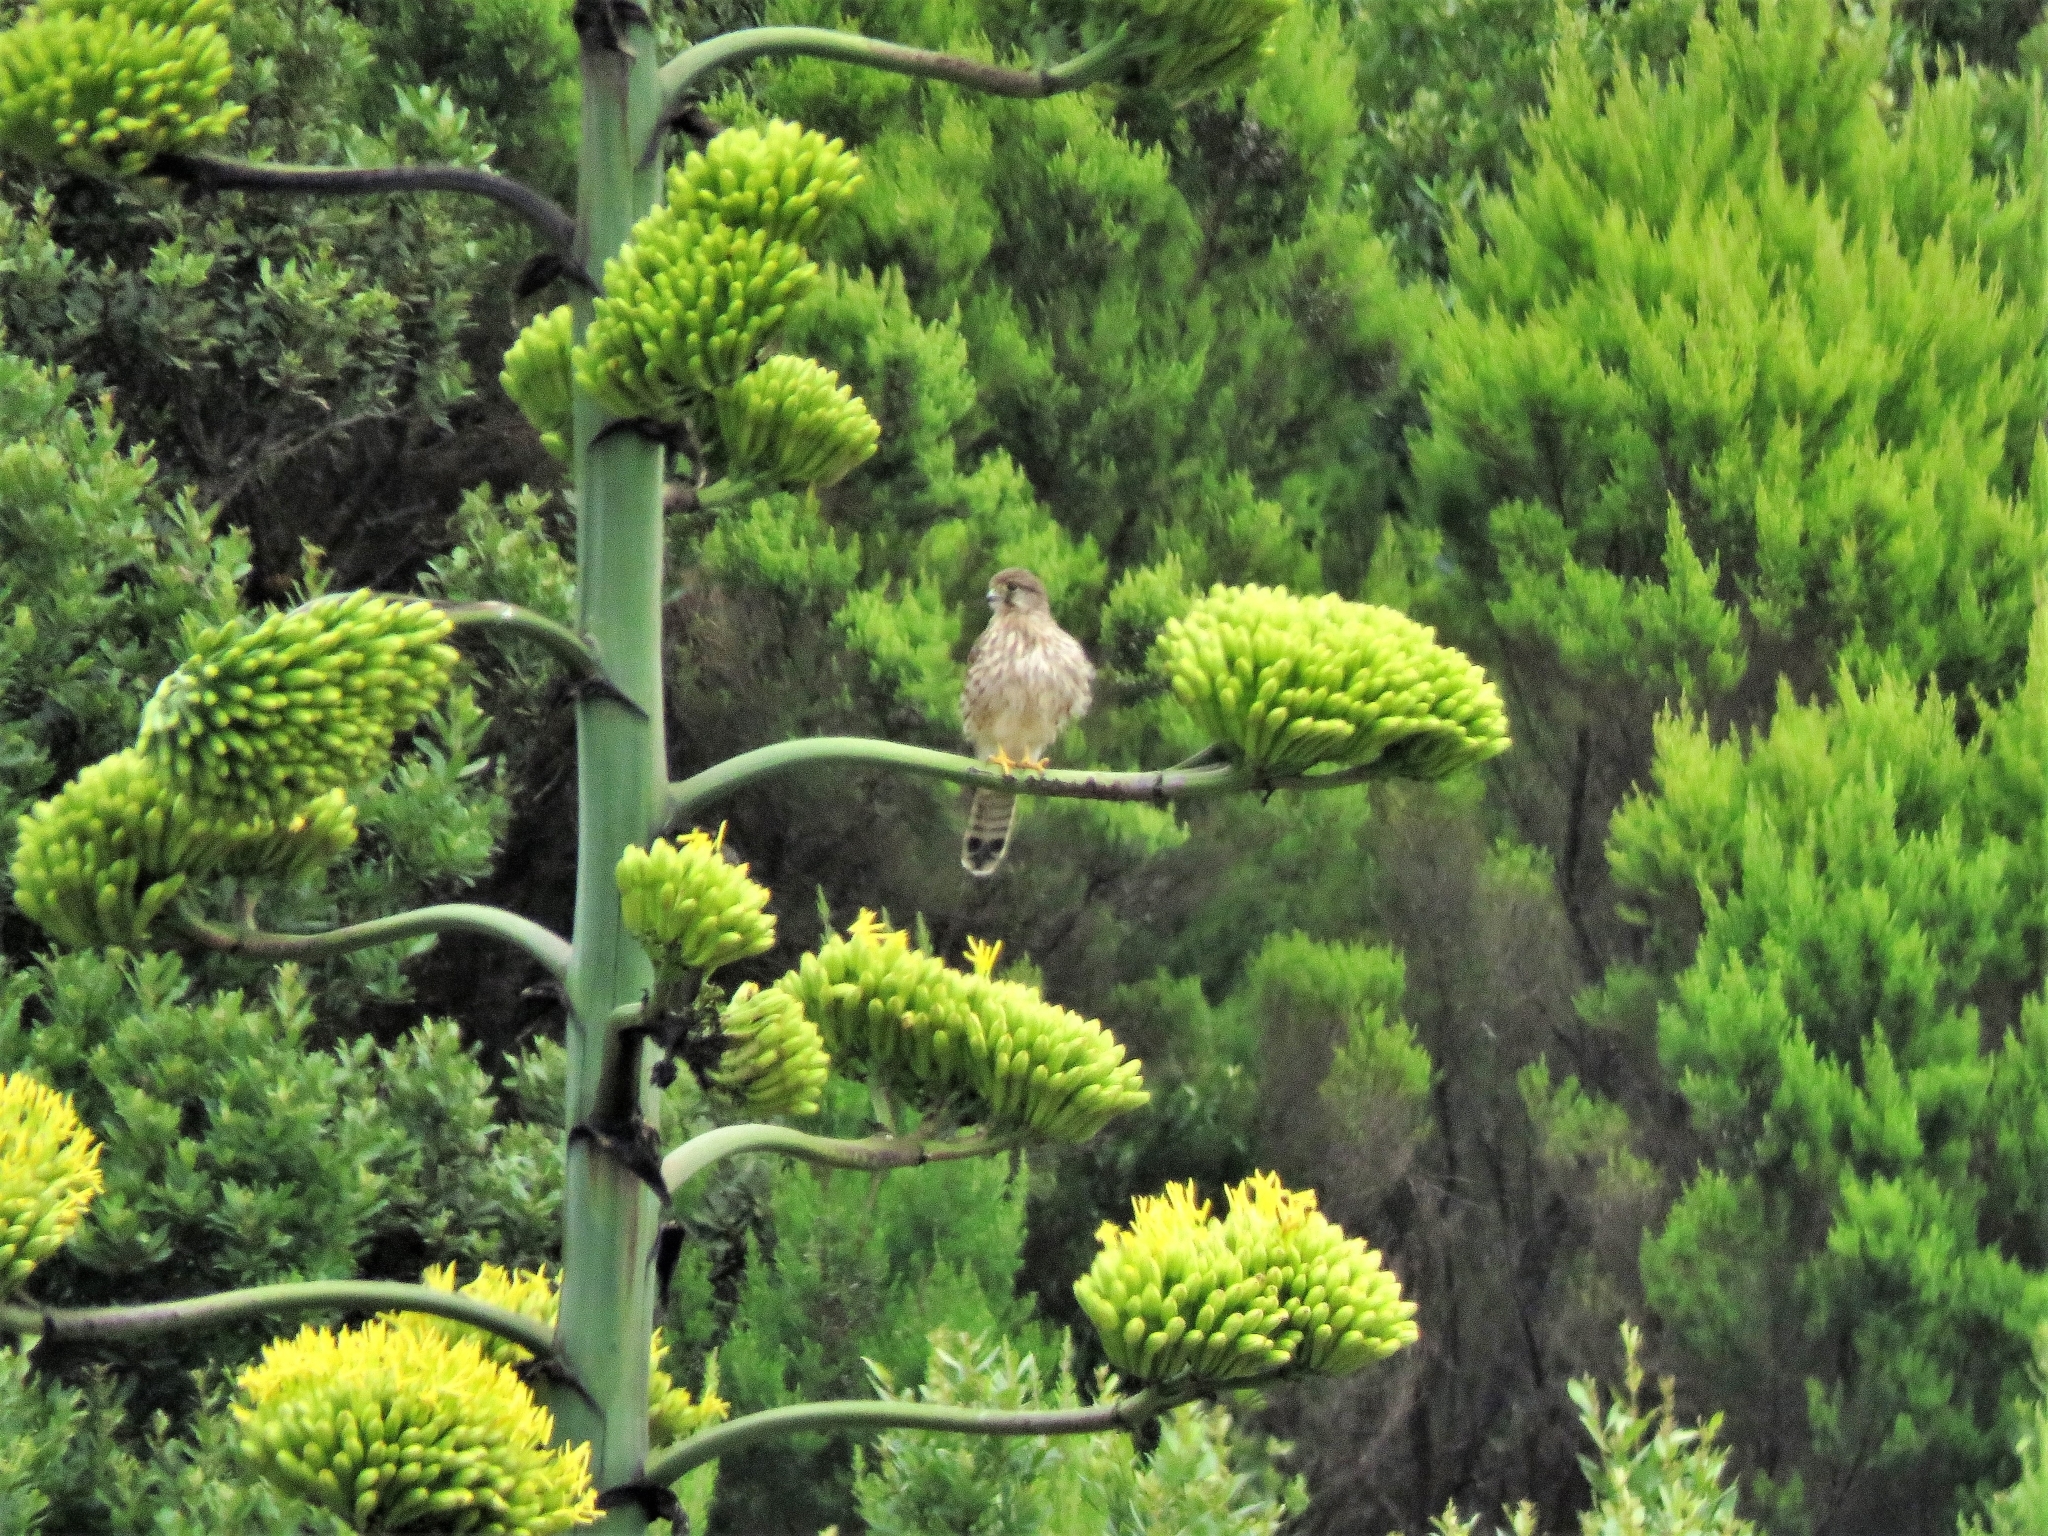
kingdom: Animalia
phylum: Chordata
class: Aves
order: Falconiformes
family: Falconidae
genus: Falco
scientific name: Falco tinnunculus
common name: Common kestrel
